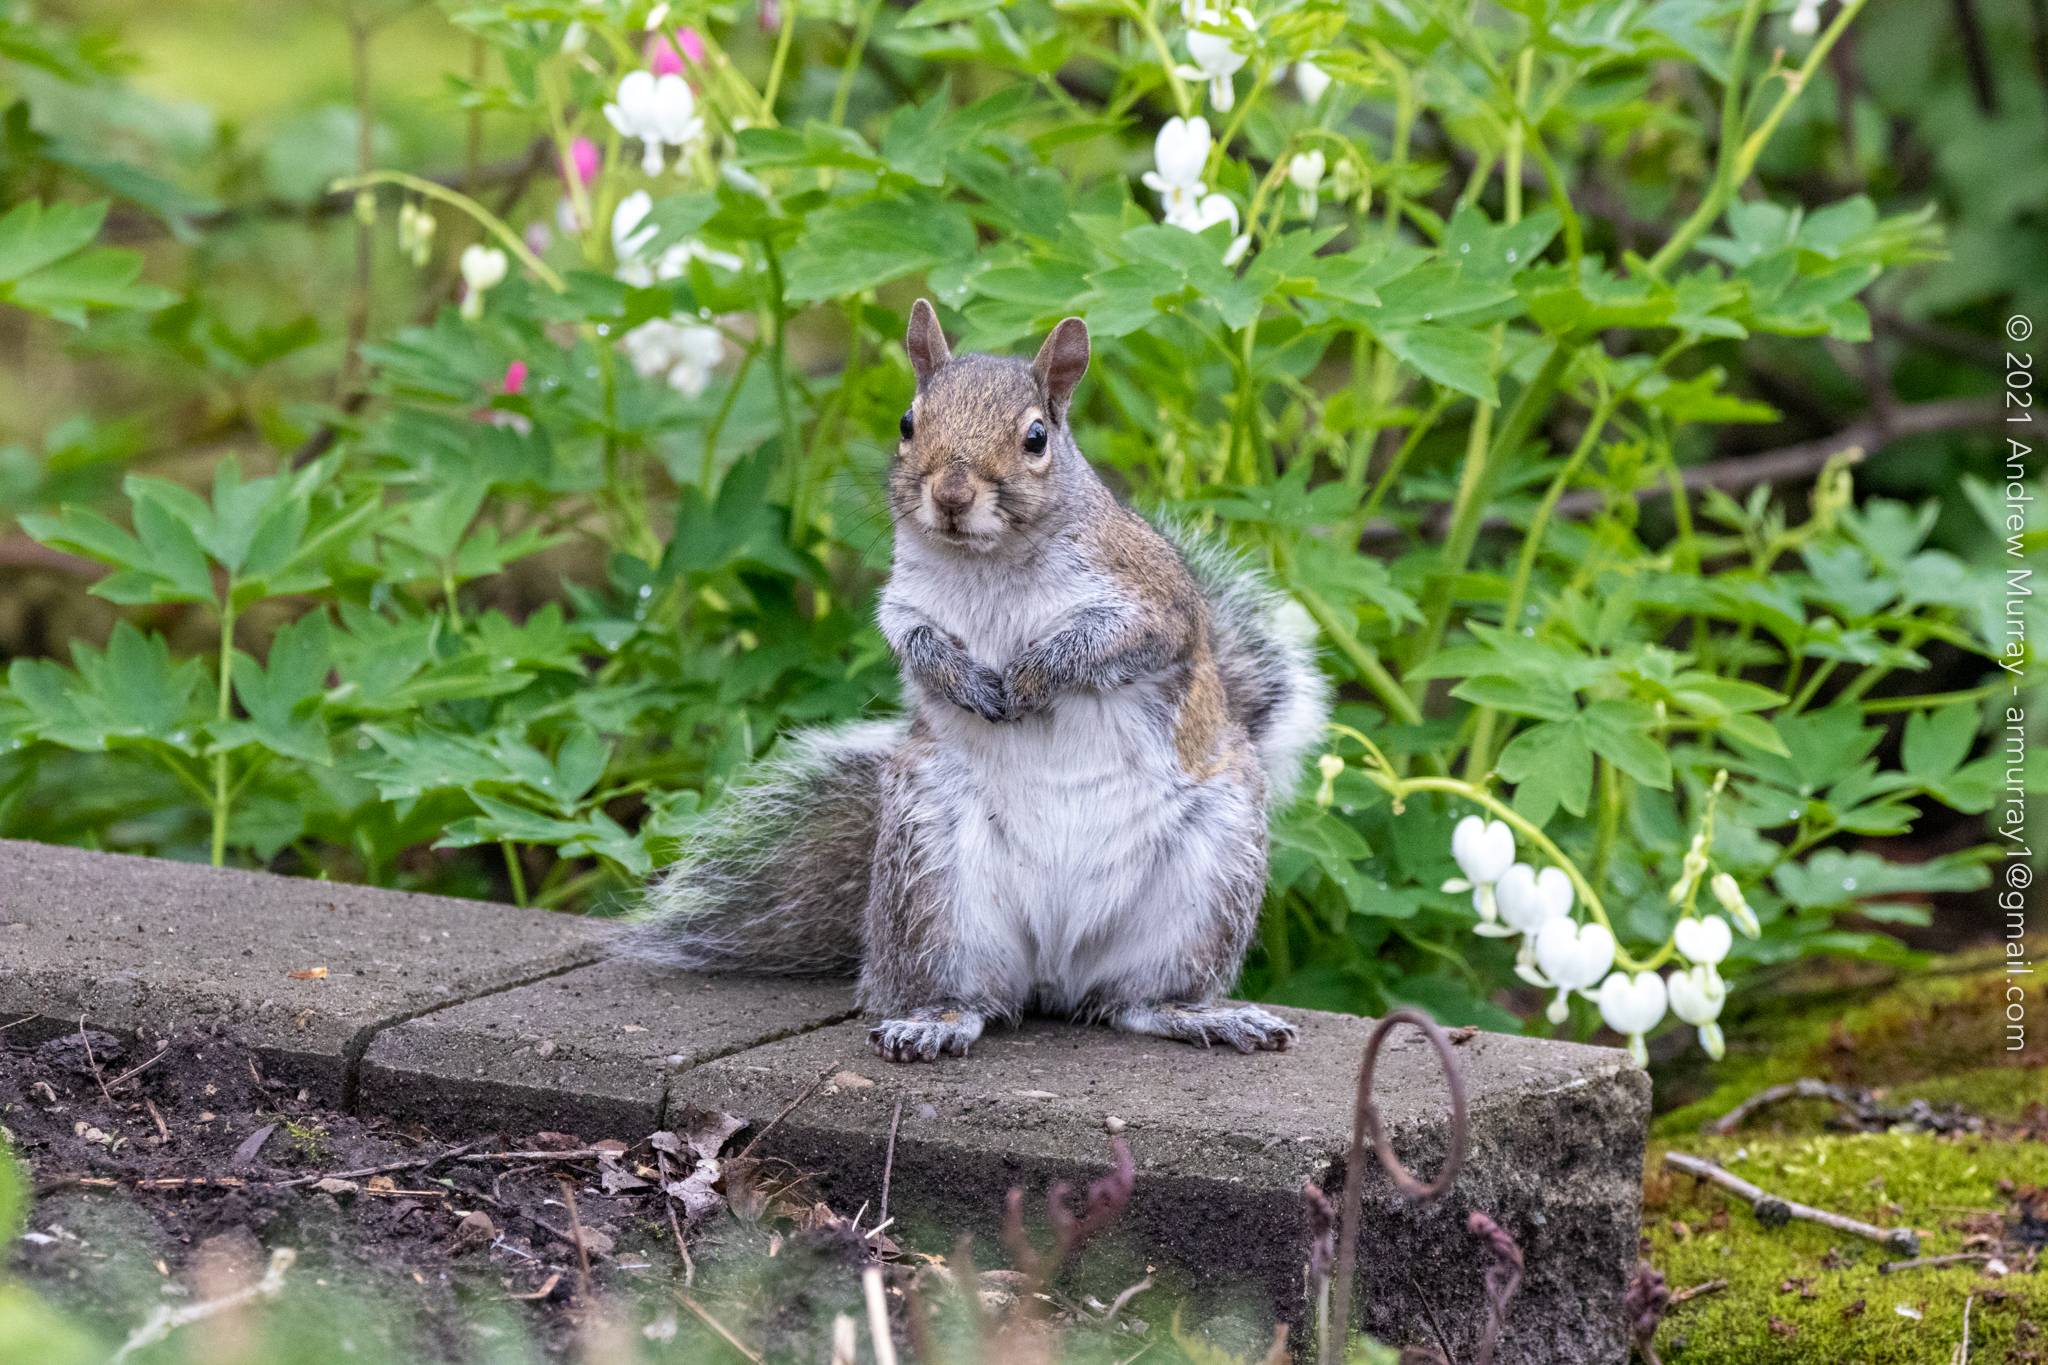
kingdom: Animalia
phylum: Chordata
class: Mammalia
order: Rodentia
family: Sciuridae
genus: Sciurus
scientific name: Sciurus carolinensis
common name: Eastern gray squirrel
